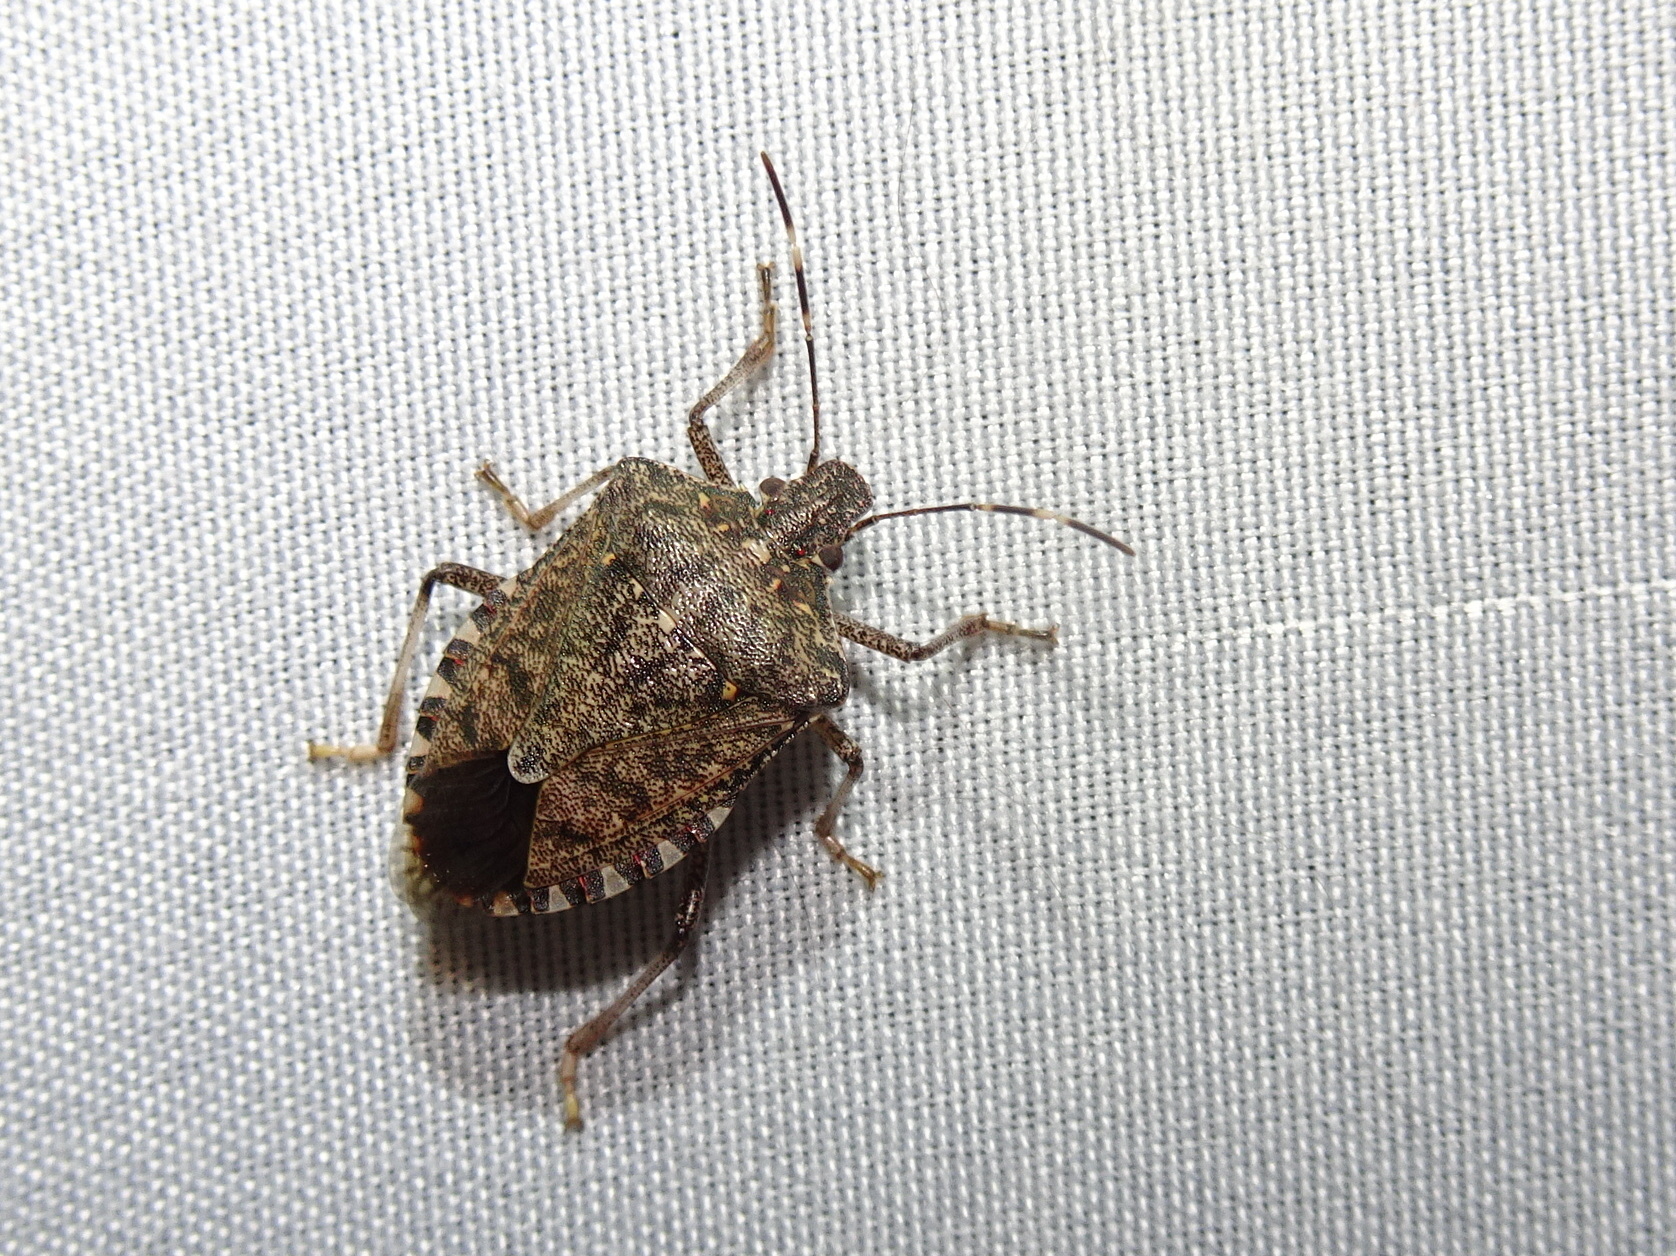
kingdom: Animalia
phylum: Arthropoda
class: Insecta
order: Hemiptera
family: Pentatomidae
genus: Halyomorpha
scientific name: Halyomorpha halys
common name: Brown marmorated stink bug
